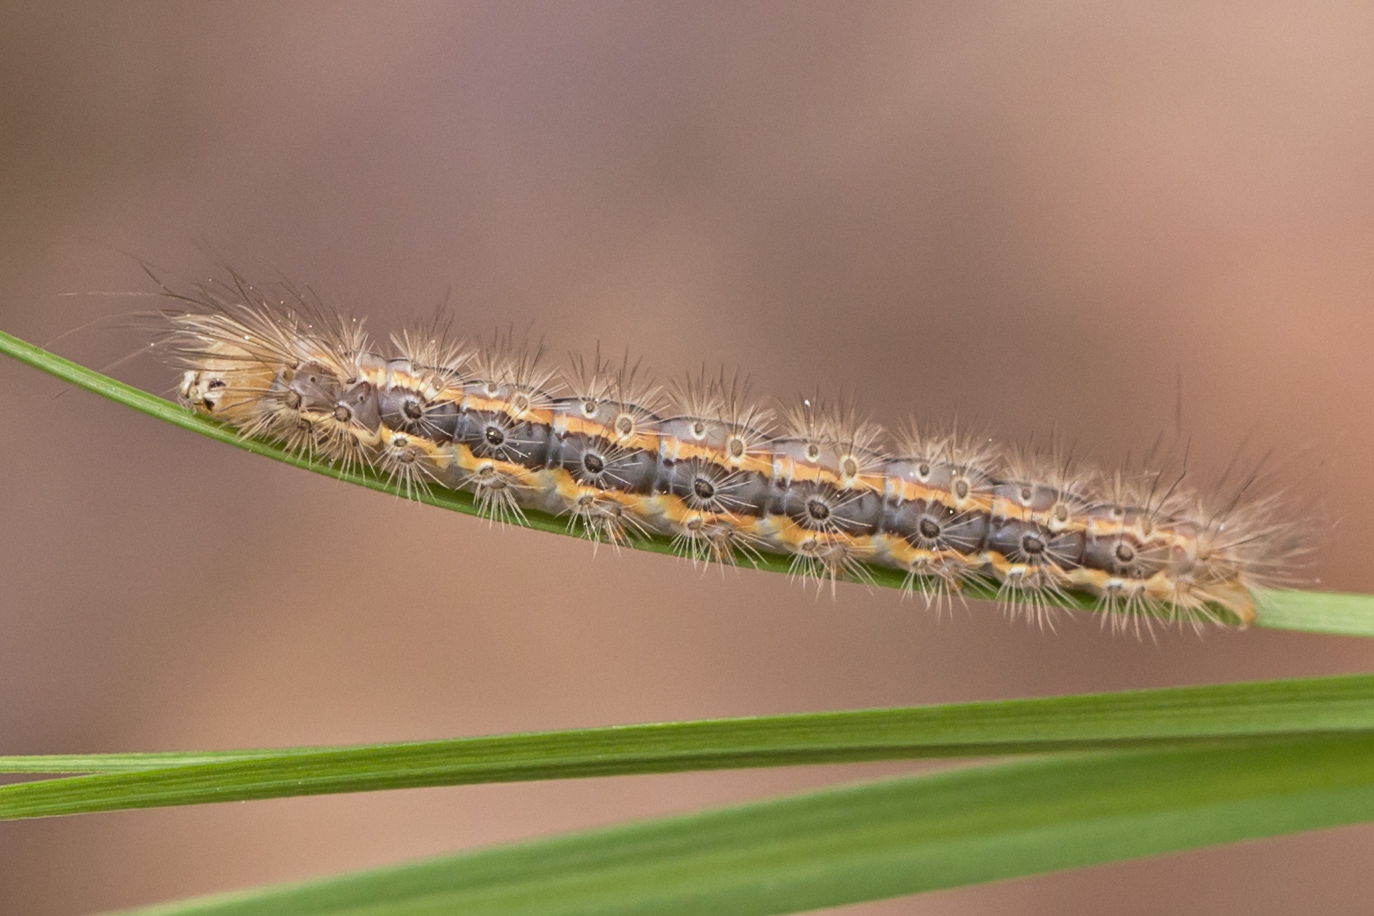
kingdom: Animalia
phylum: Arthropoda
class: Insecta
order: Lepidoptera
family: Erebidae
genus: Cisseps
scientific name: Cisseps fulvicollis
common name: Yellow-collared scape moth
